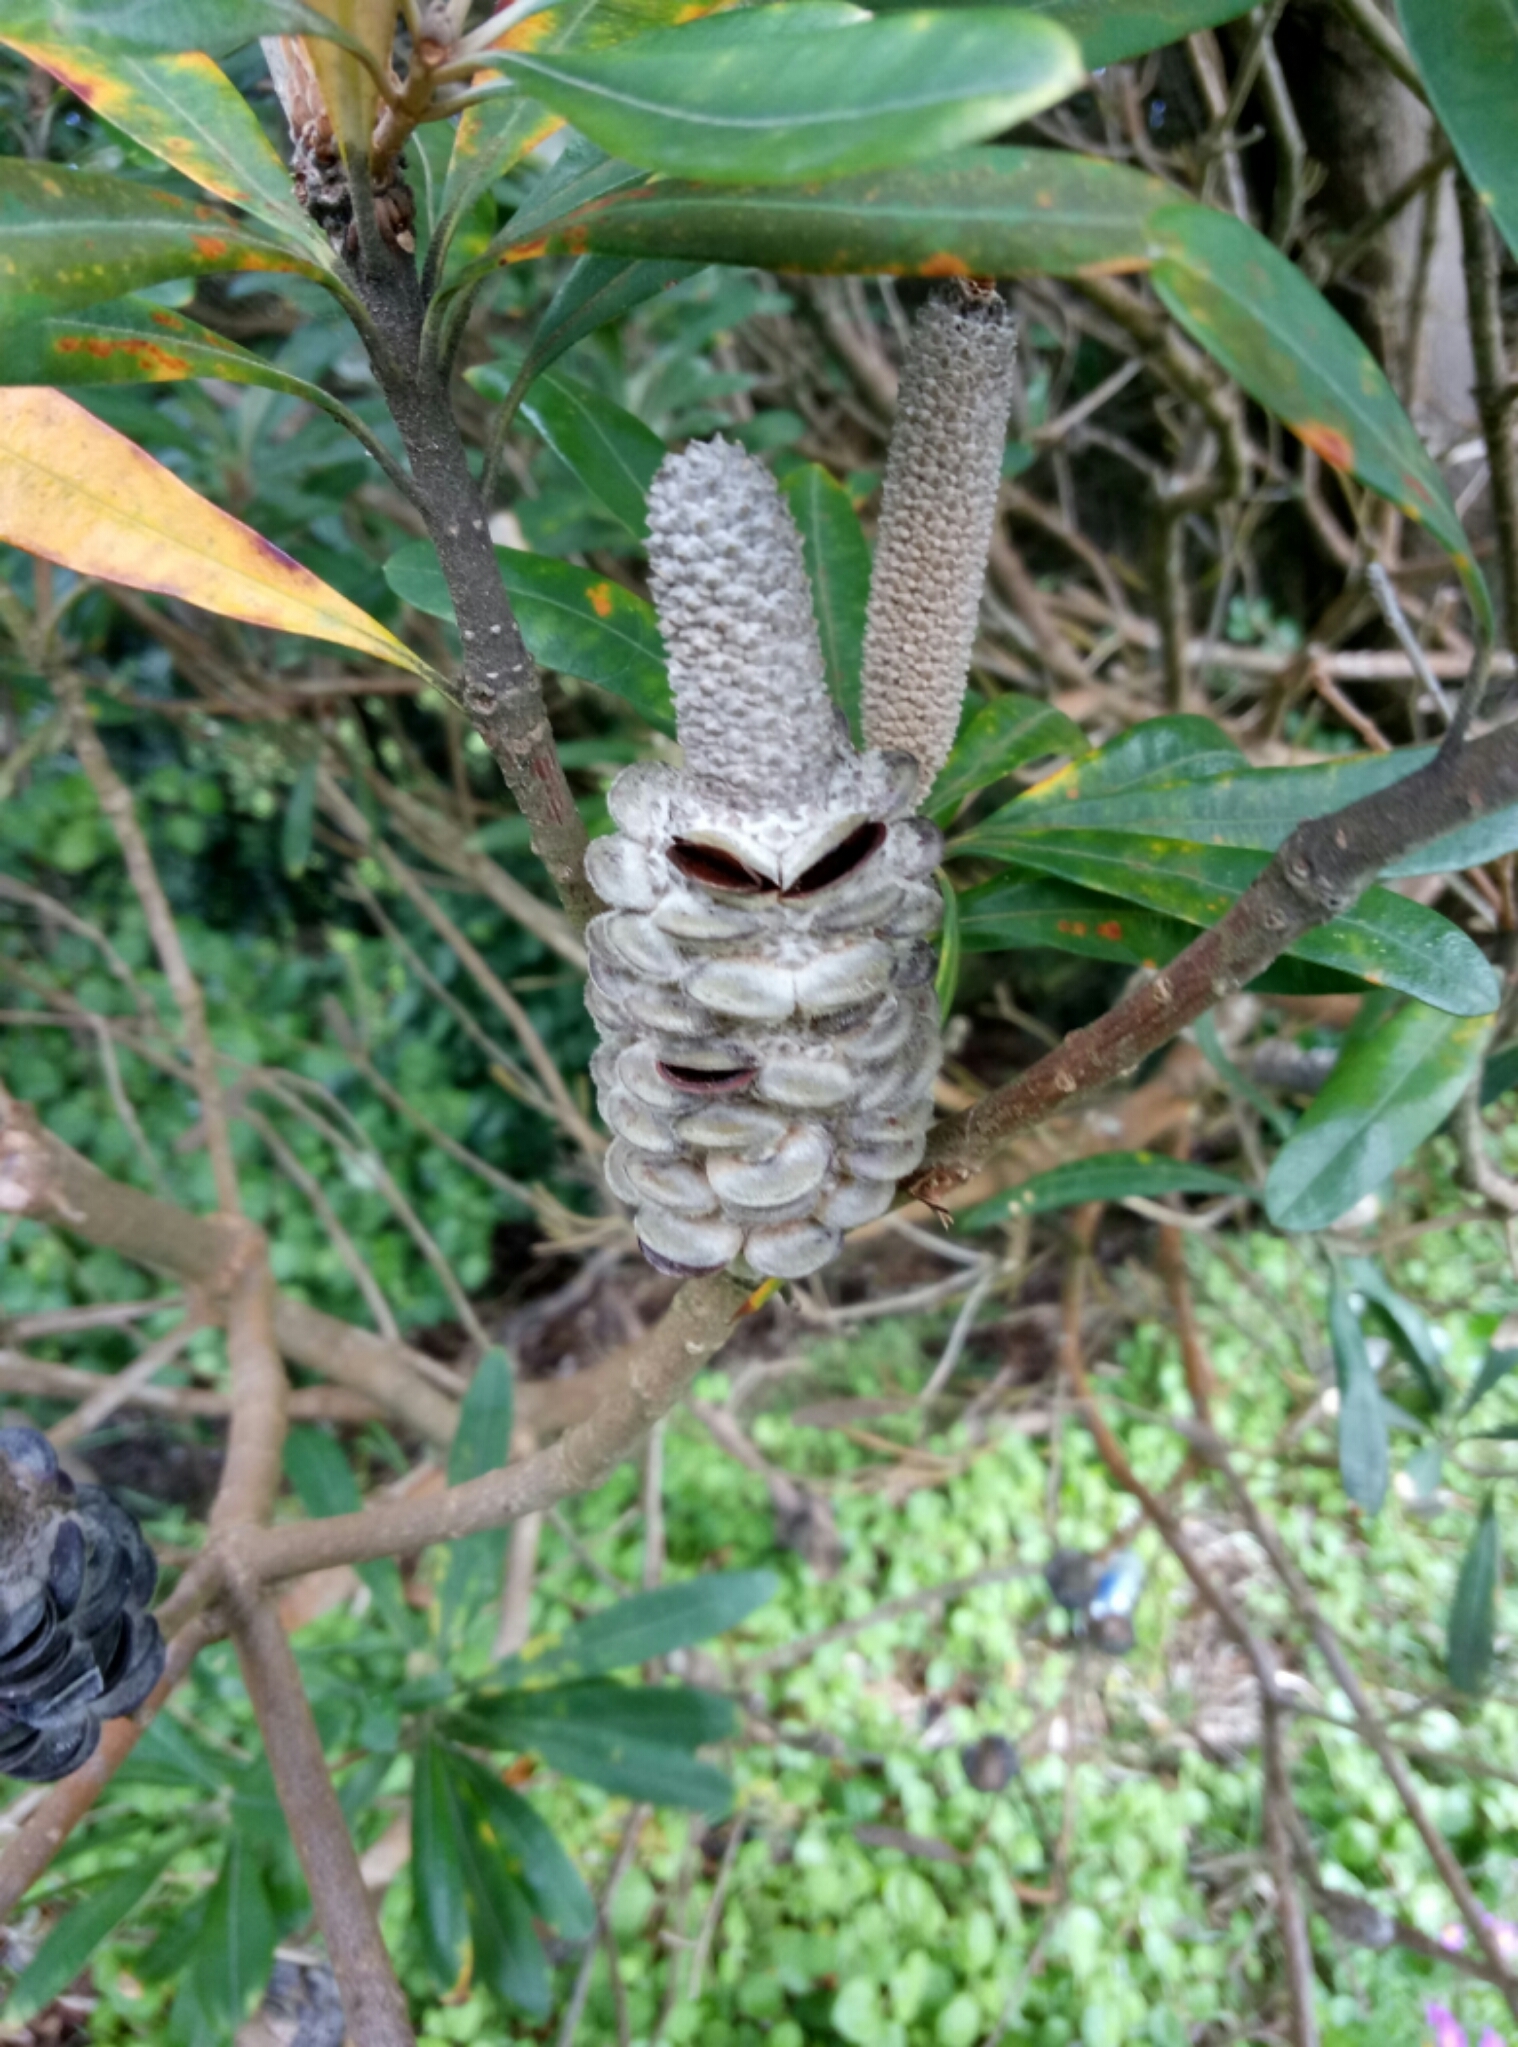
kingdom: Plantae
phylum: Tracheophyta
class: Magnoliopsida
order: Proteales
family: Proteaceae
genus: Banksia
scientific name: Banksia integrifolia
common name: White-honeysuckle
